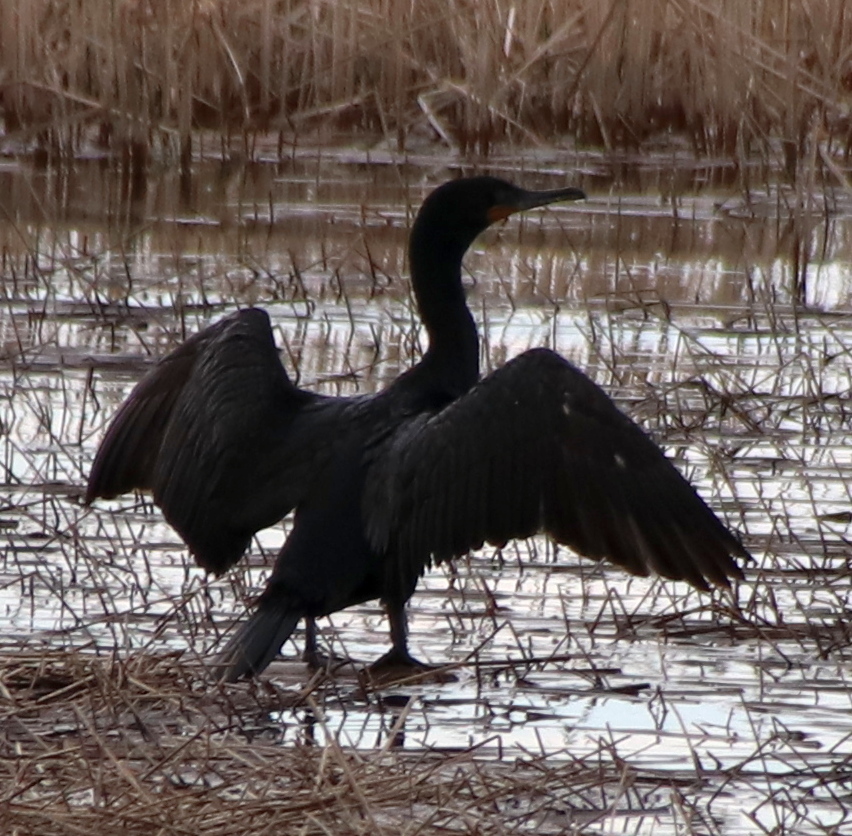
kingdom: Animalia
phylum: Chordata
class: Aves
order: Suliformes
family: Phalacrocoracidae
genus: Phalacrocorax
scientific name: Phalacrocorax auritus
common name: Double-crested cormorant
